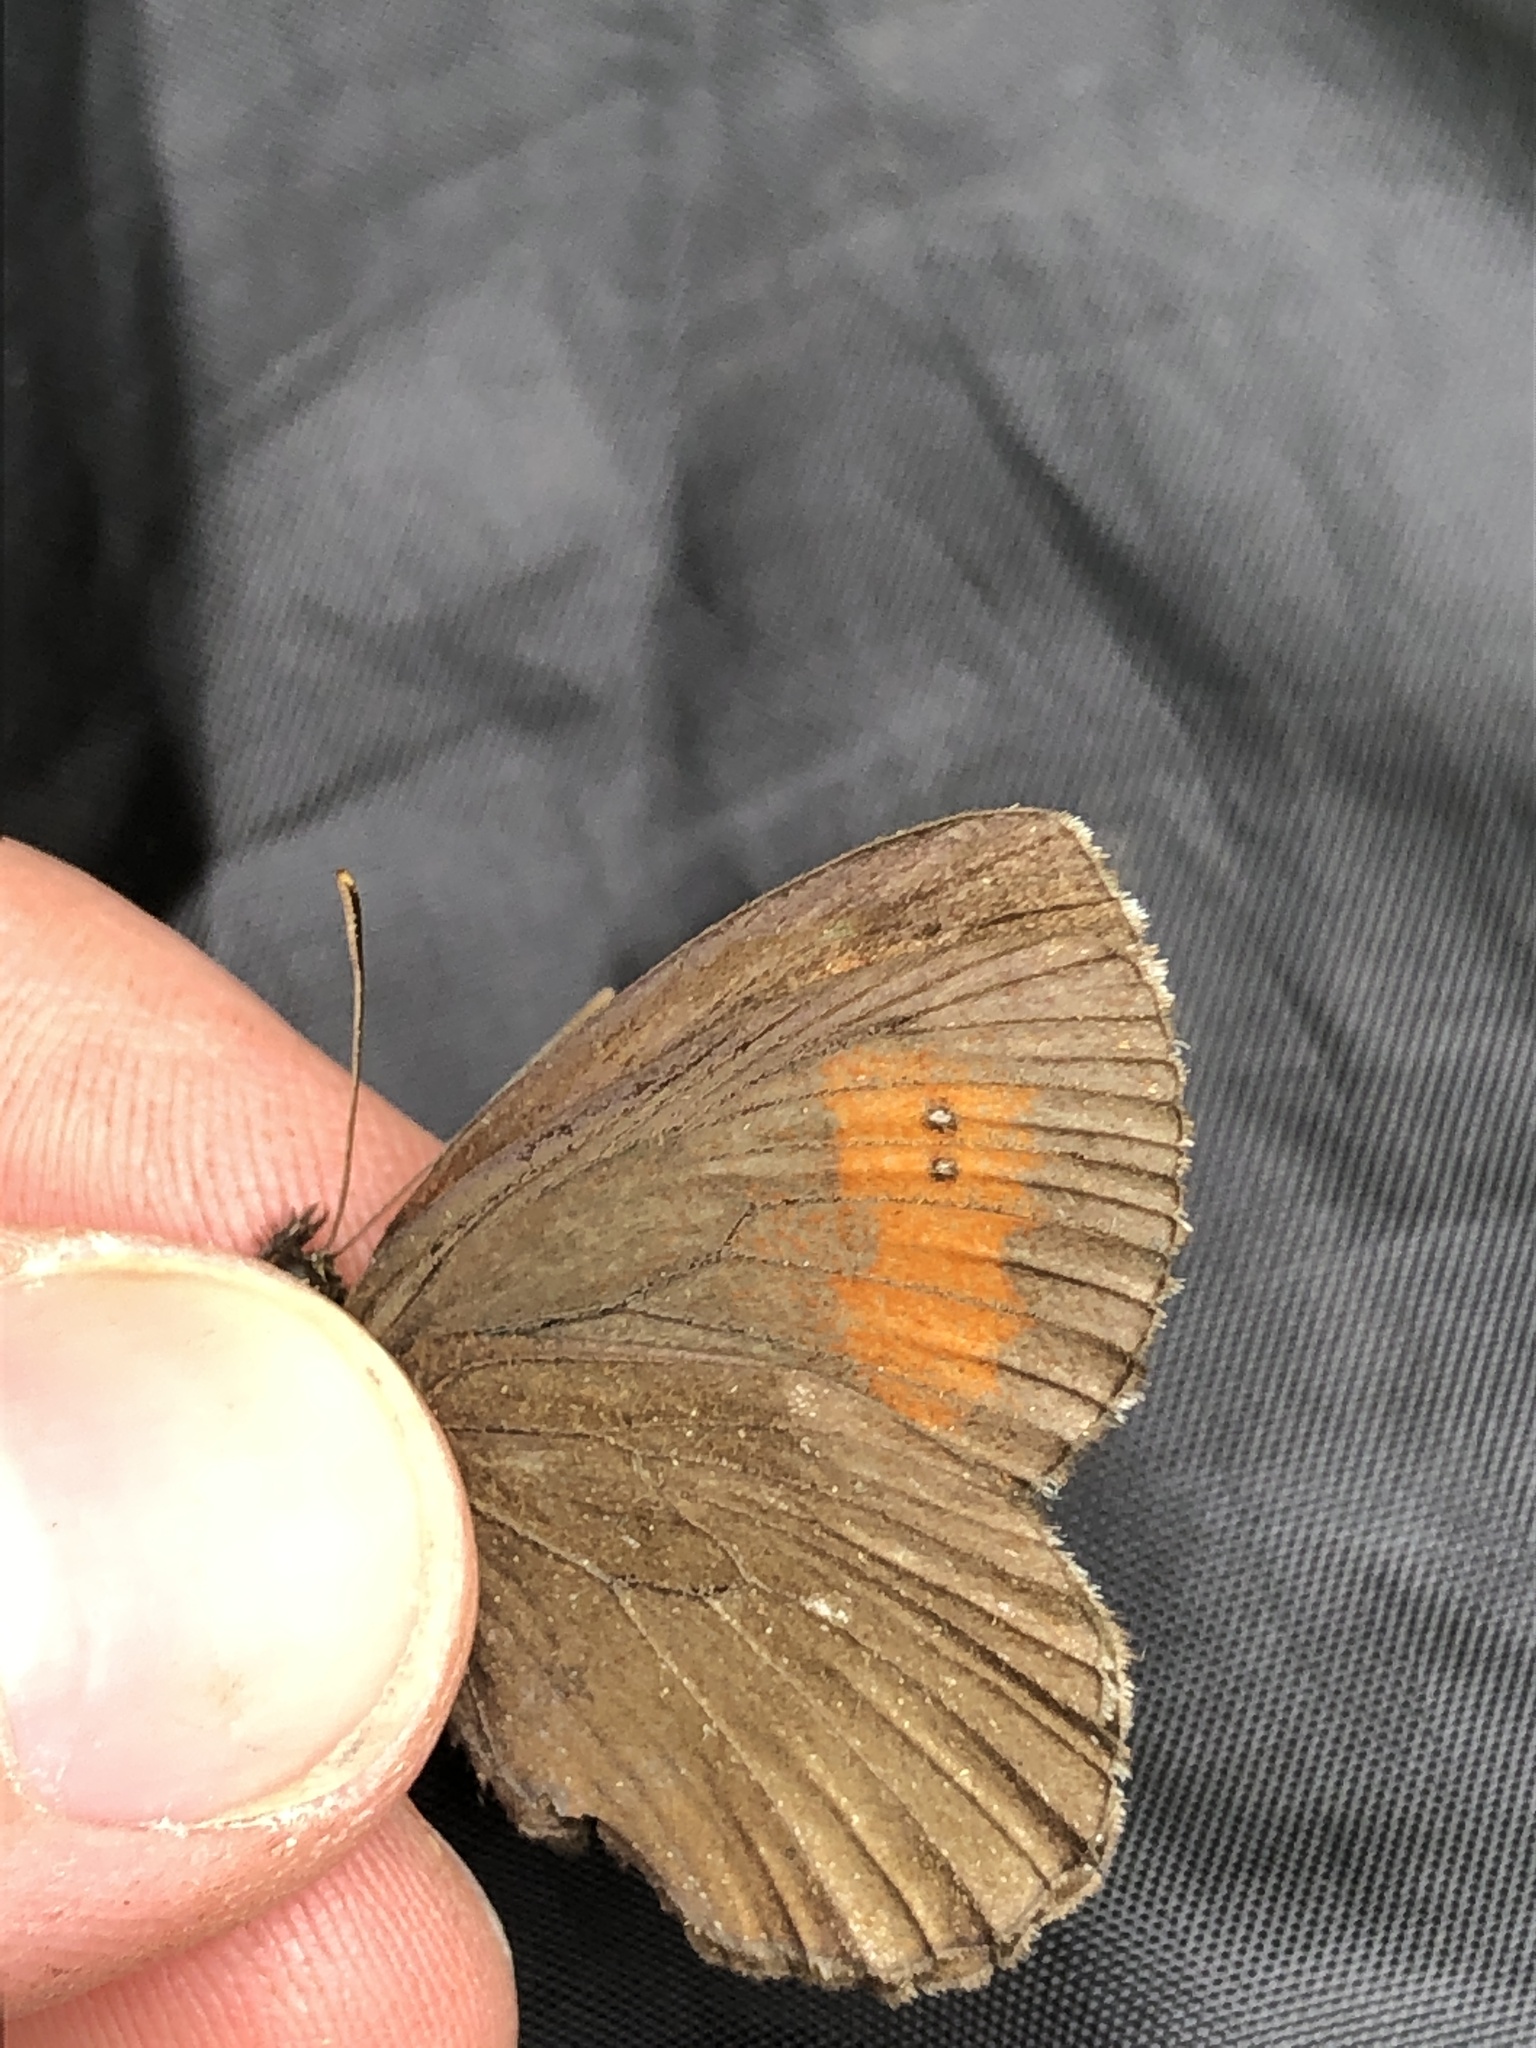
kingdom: Animalia
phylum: Arthropoda
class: Insecta
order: Lepidoptera
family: Nymphalidae
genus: Erebia
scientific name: Erebia euryale
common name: Large ringlet
